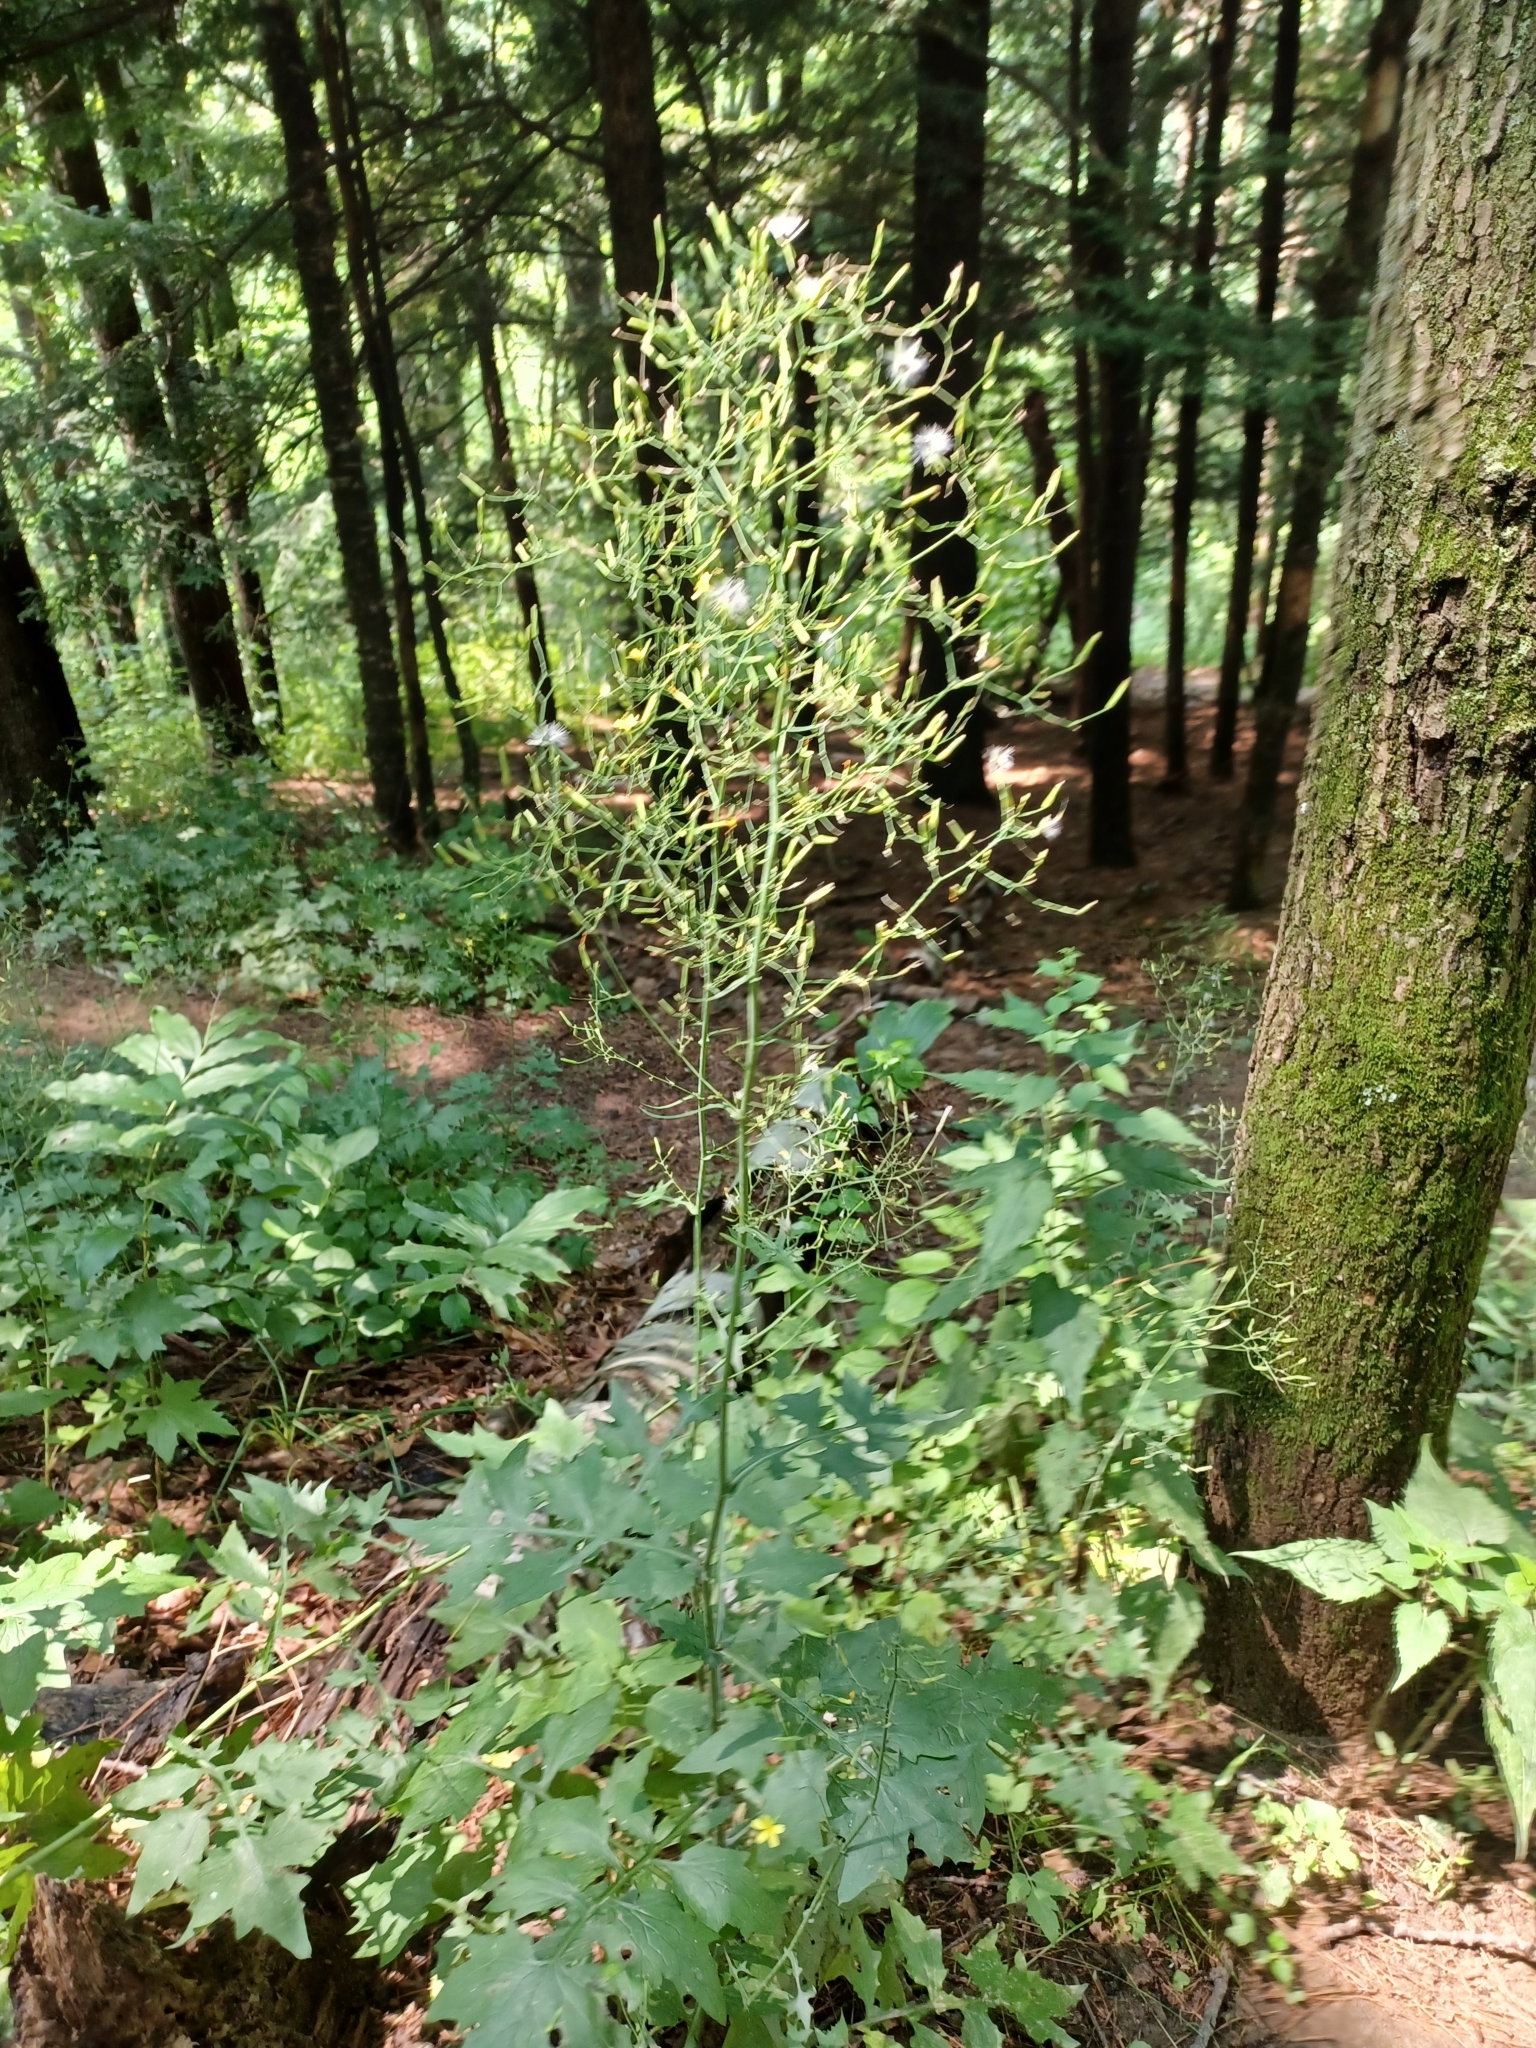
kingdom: Plantae
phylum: Tracheophyta
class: Magnoliopsida
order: Asterales
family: Asteraceae
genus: Mycelis
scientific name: Mycelis muralis
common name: Wall lettuce
